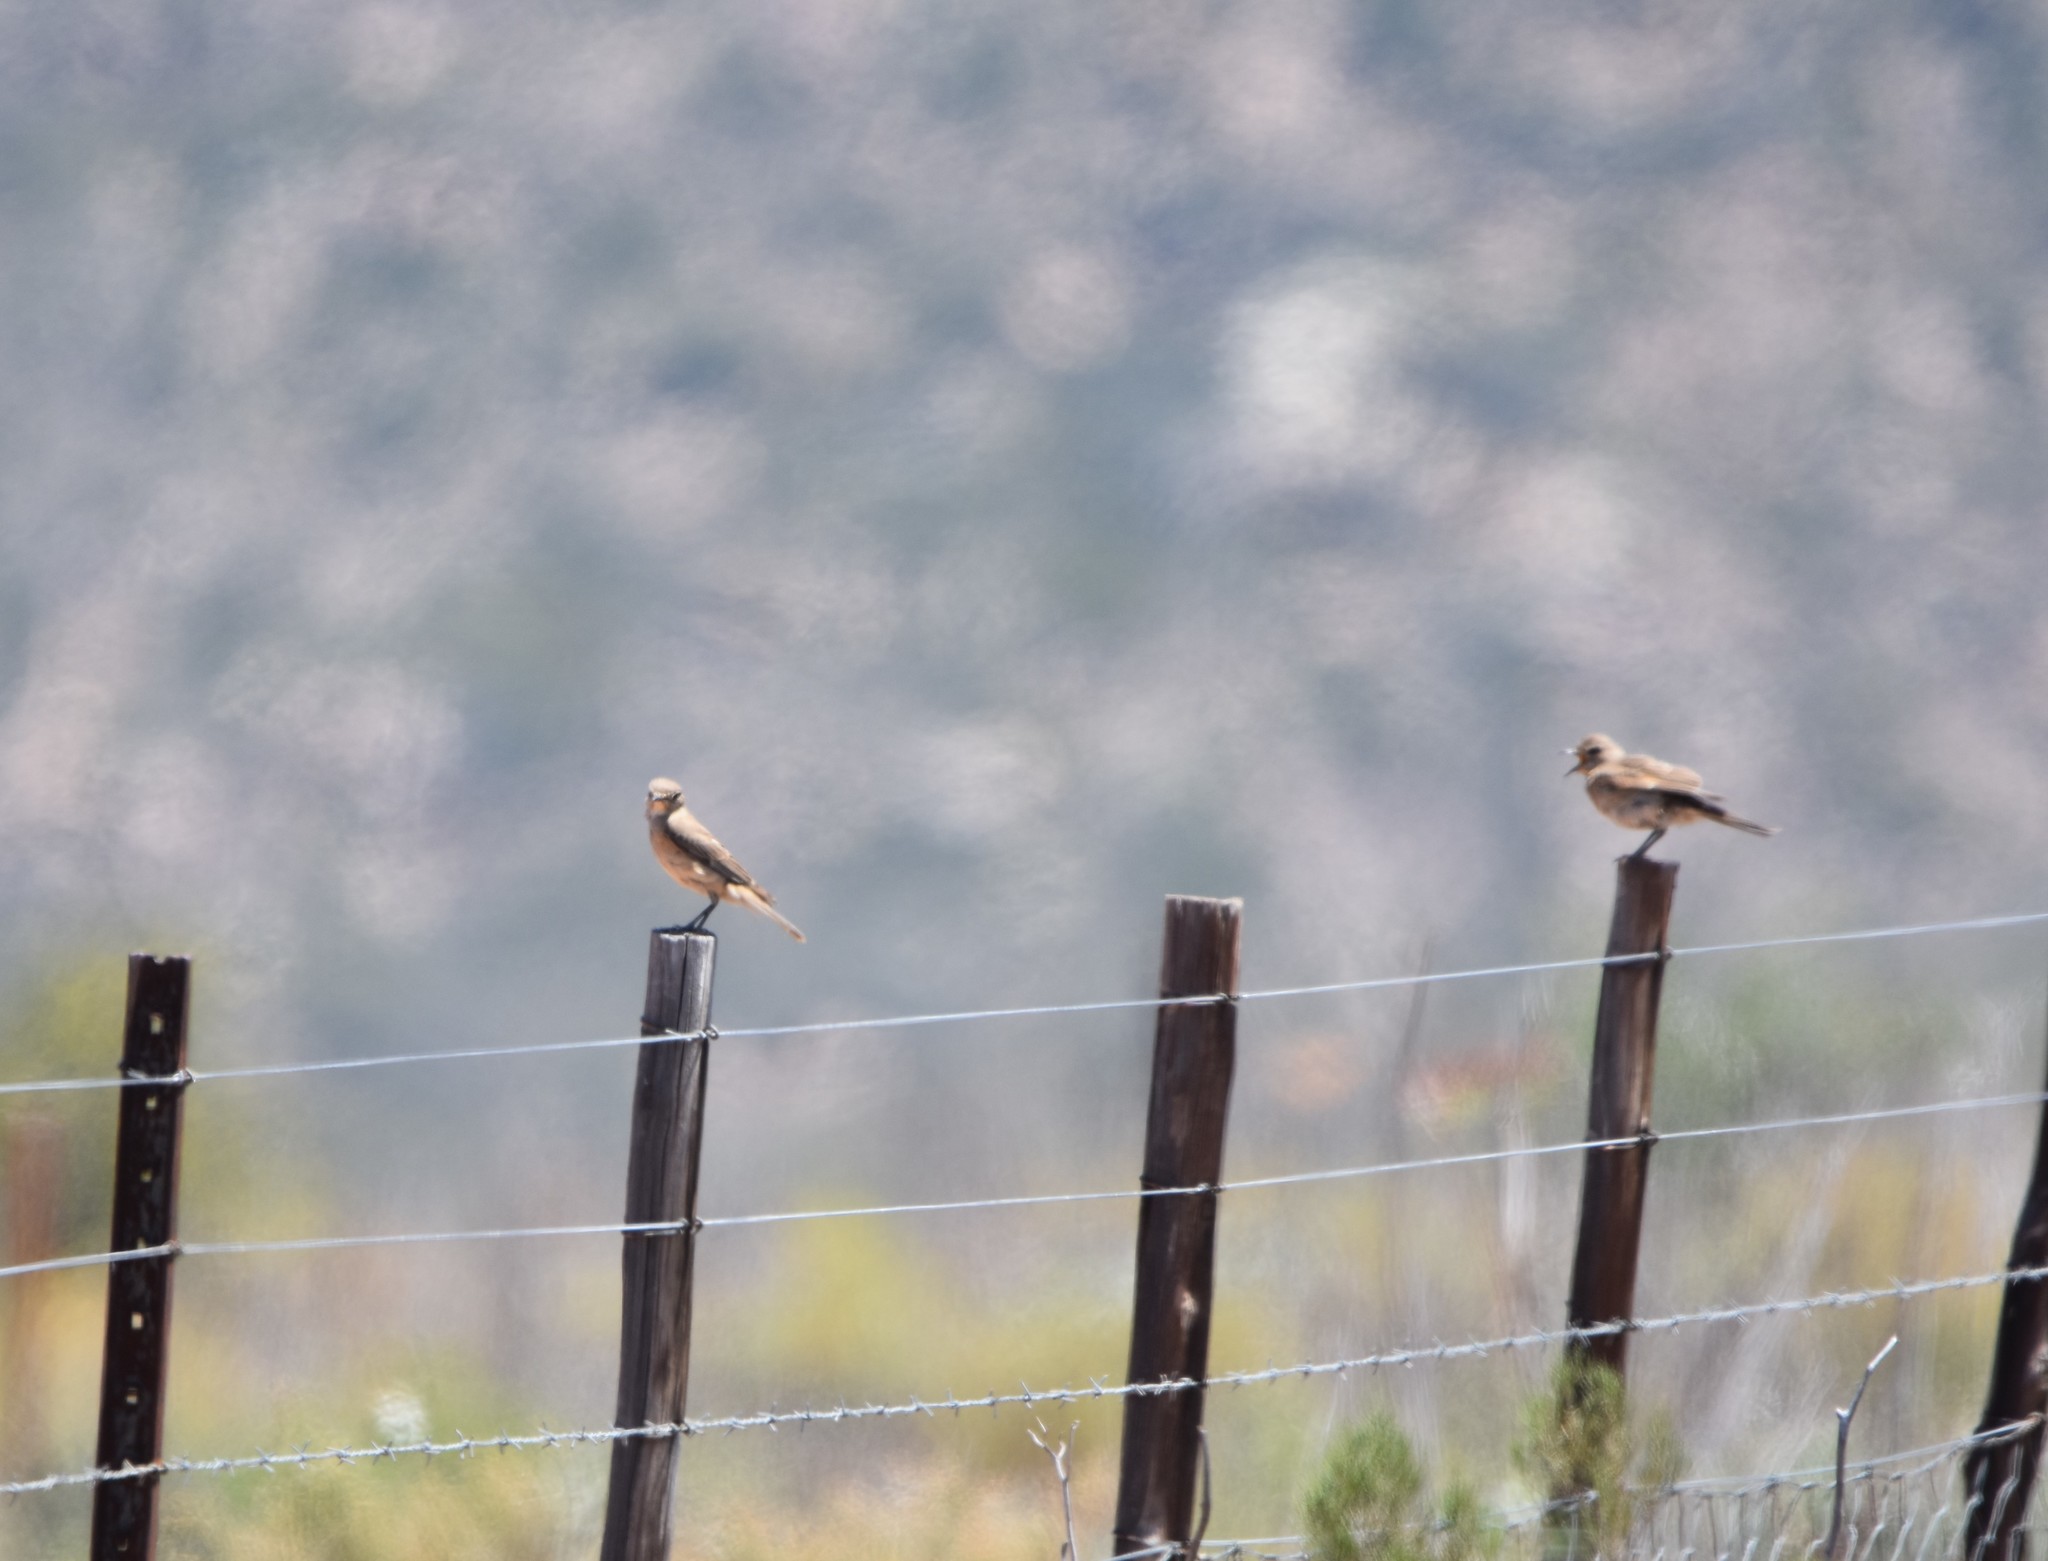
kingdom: Animalia
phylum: Chordata
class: Aves
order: Passeriformes
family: Muscicapidae
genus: Bradornis
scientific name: Bradornis infuscatus
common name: Chat flycatcher
